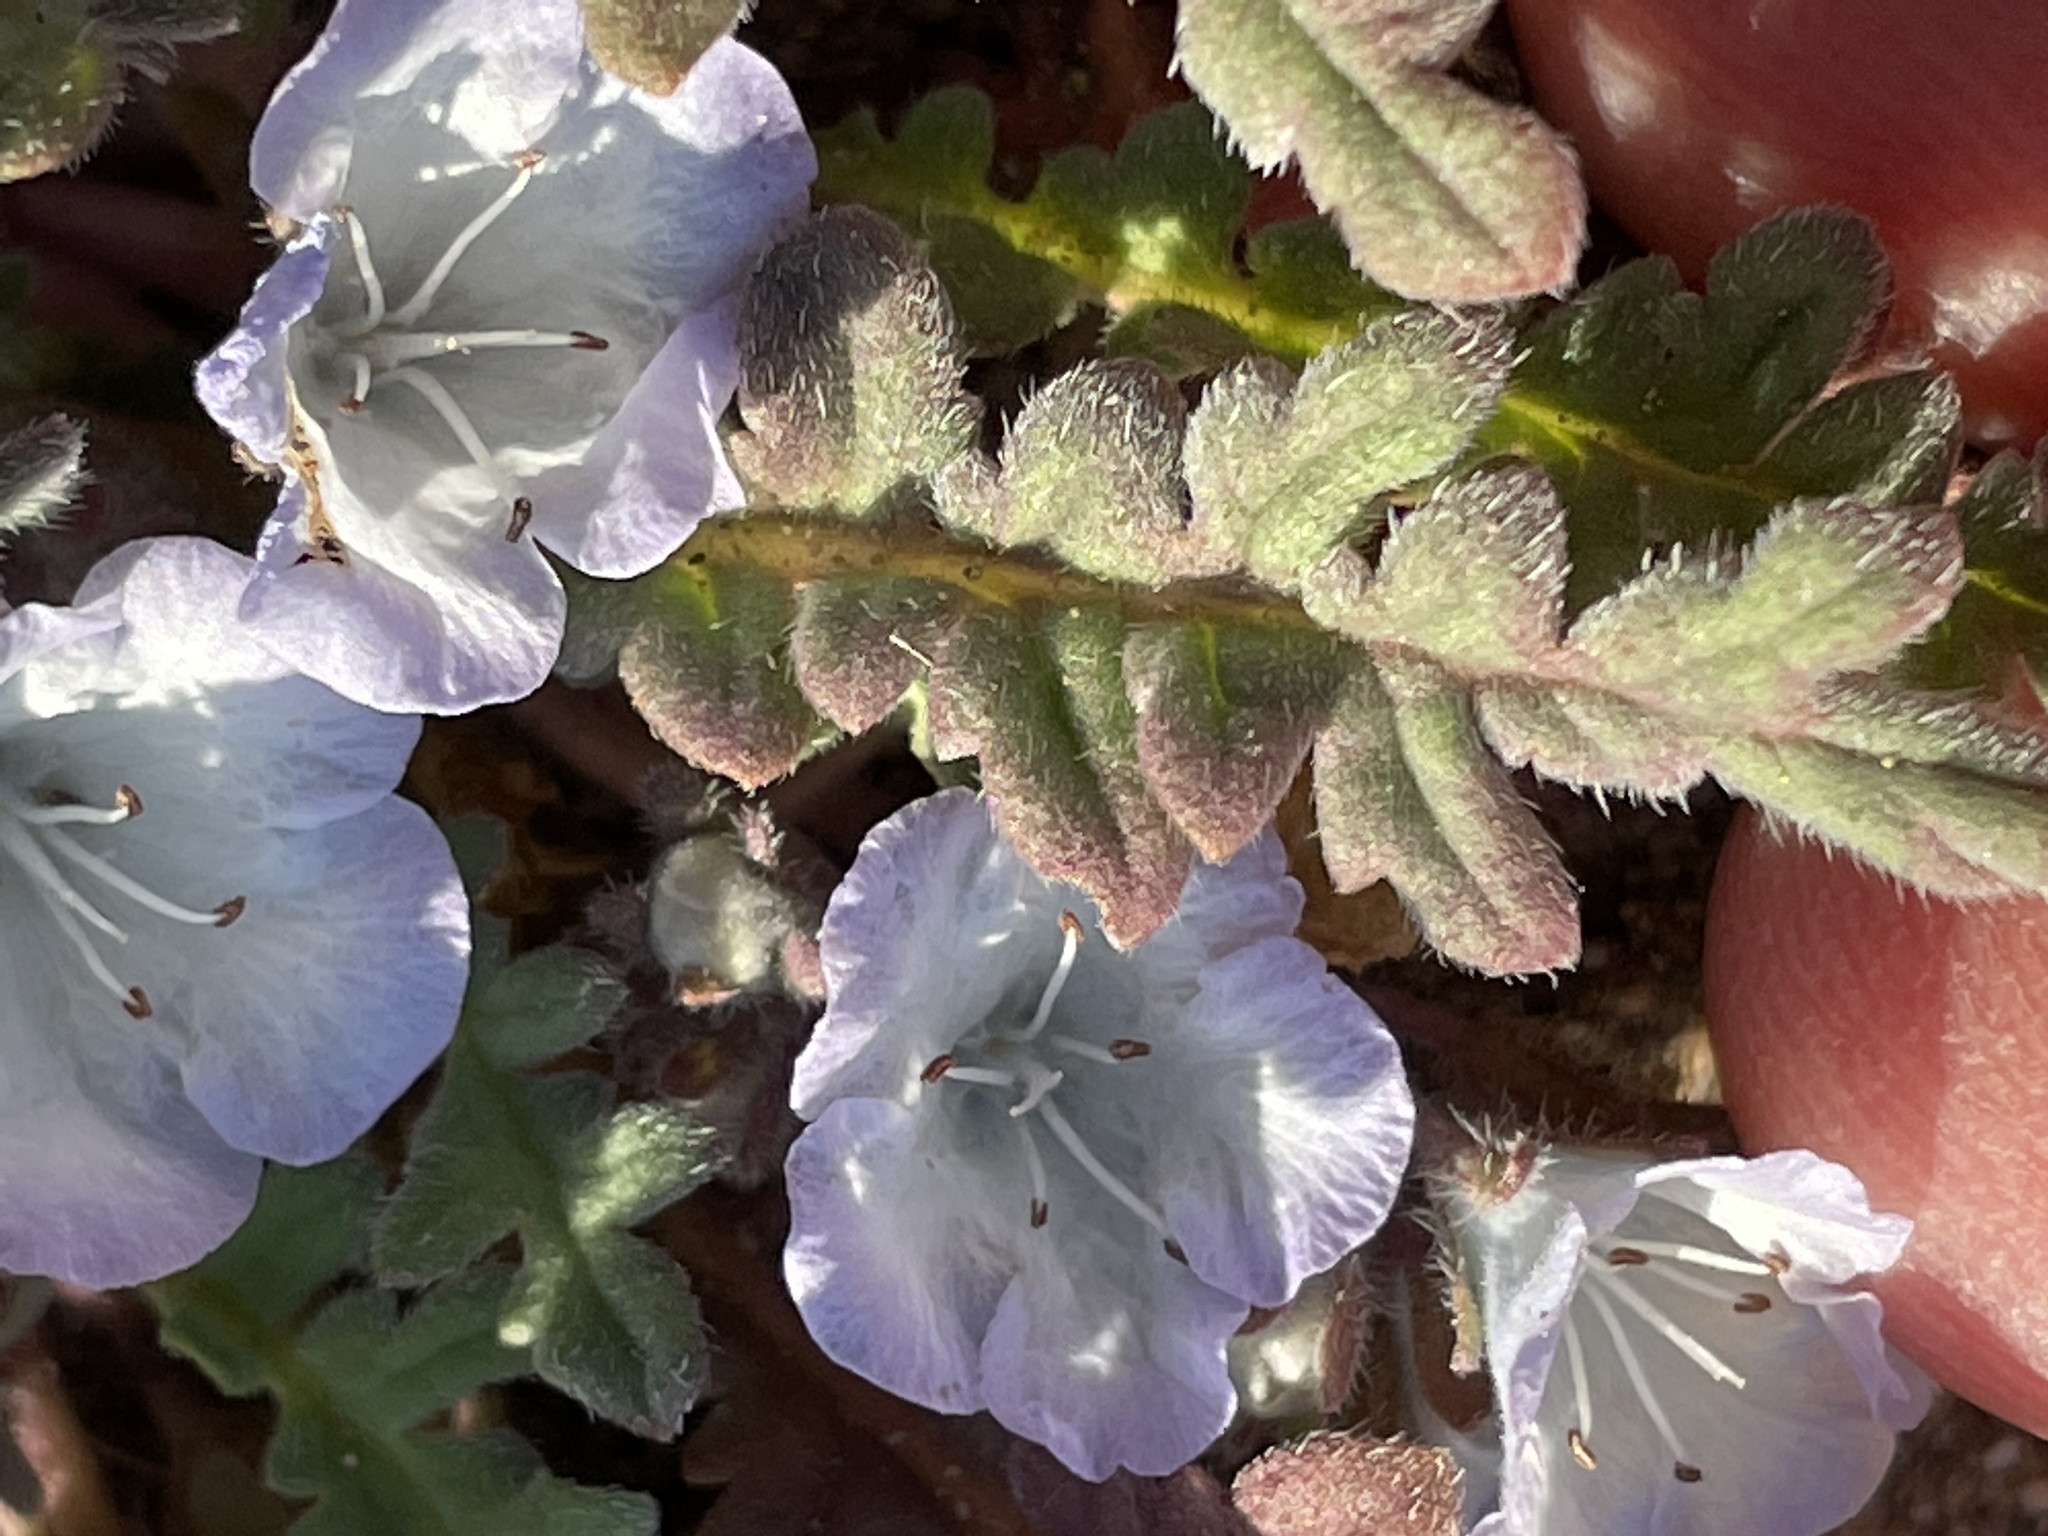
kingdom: Plantae
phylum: Tracheophyta
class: Magnoliopsida
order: Boraginales
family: Hydrophyllaceae
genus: Phacelia
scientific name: Phacelia douglasii
